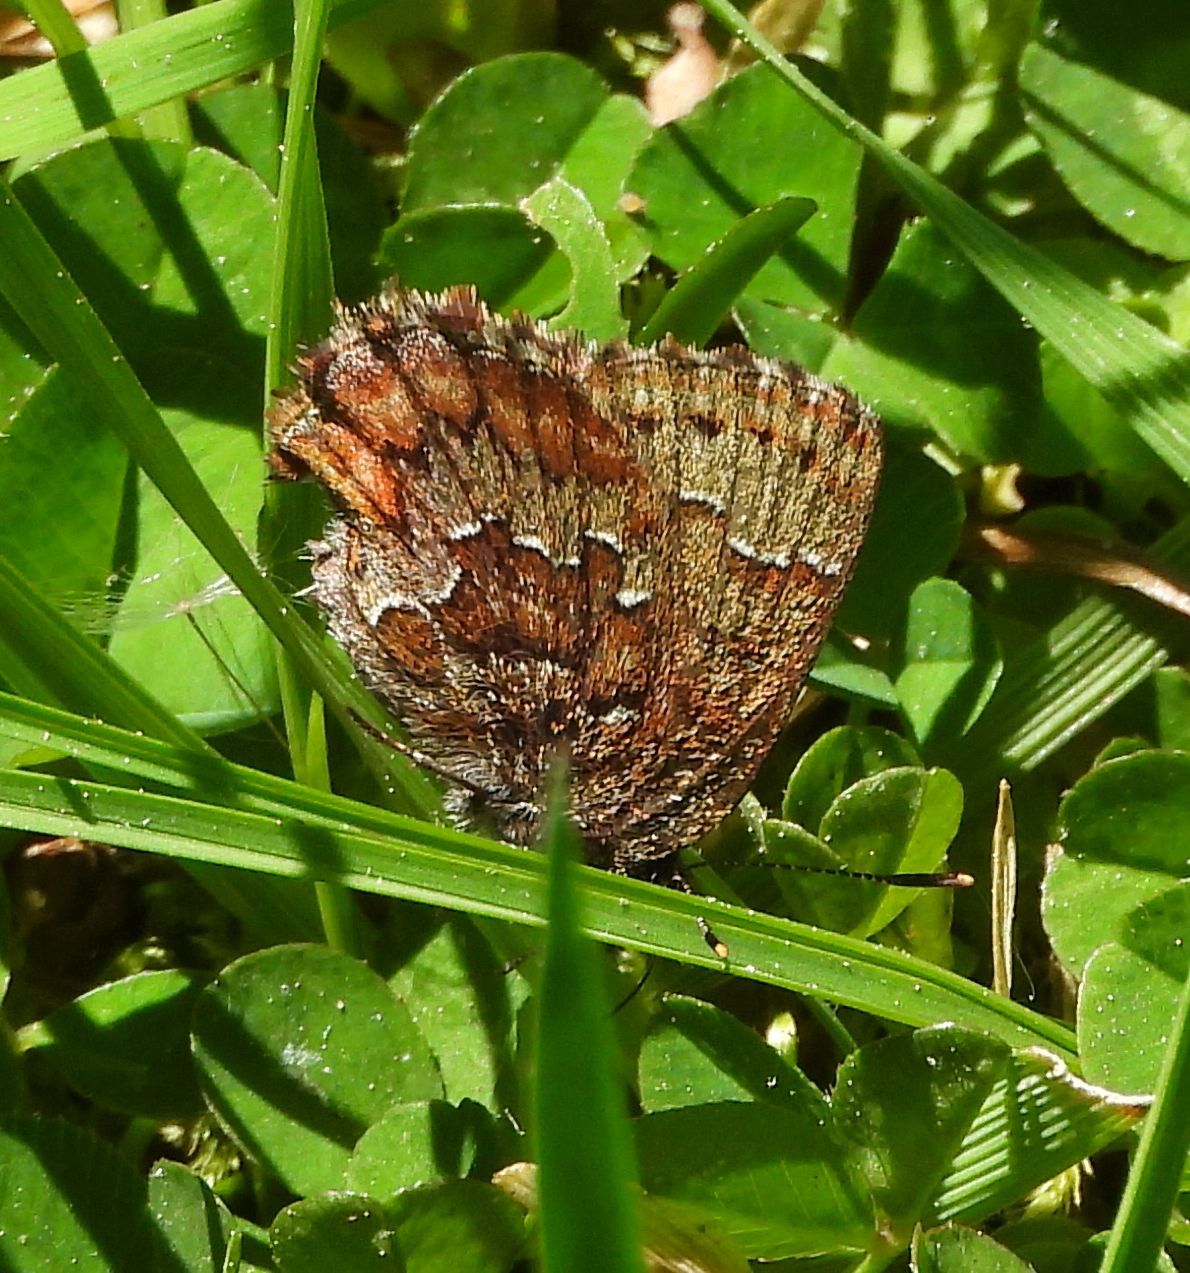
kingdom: Animalia
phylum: Arthropoda
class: Insecta
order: Lepidoptera
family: Lycaenidae
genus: Incisalia
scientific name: Incisalia niphon
